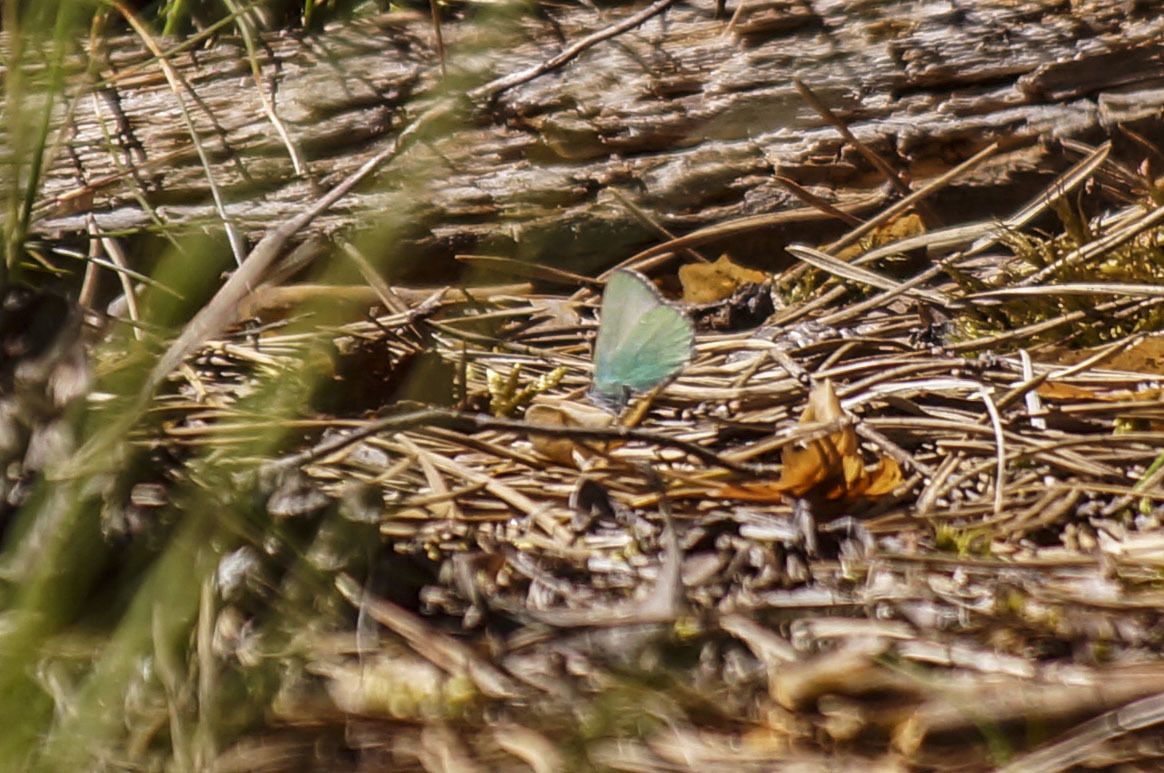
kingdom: Animalia
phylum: Arthropoda
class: Insecta
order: Lepidoptera
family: Lycaenidae
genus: Callophrys
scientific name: Callophrys rubi
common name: Green hairstreak
